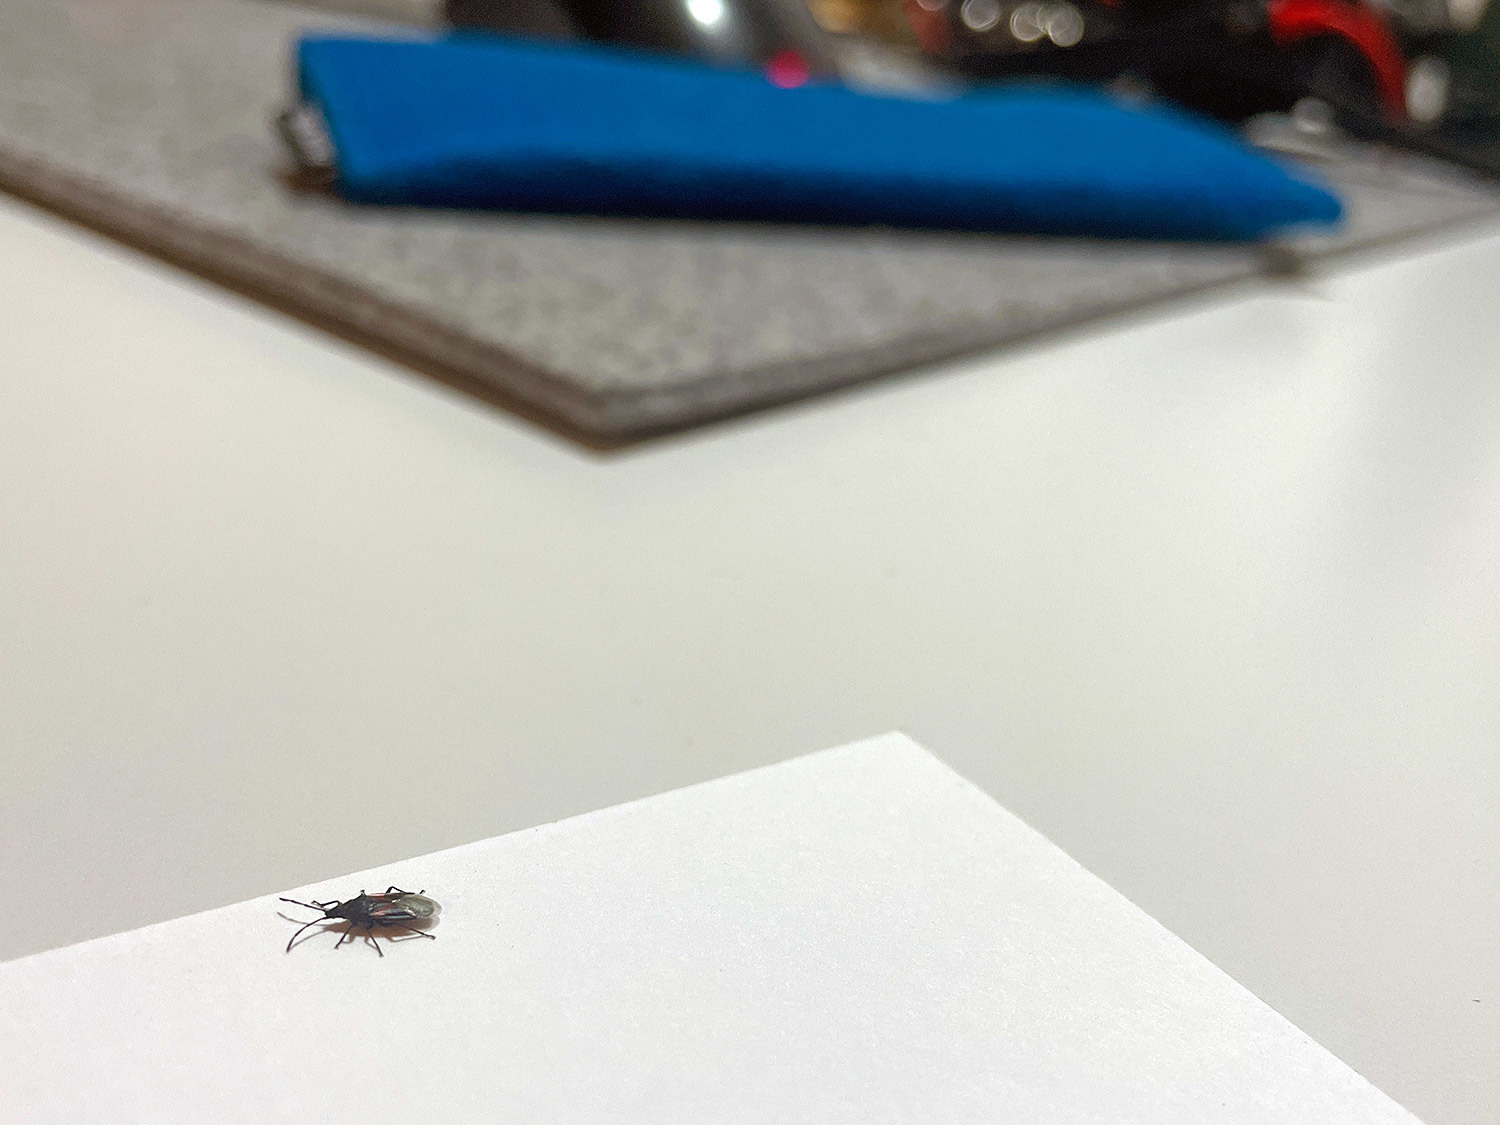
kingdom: Animalia
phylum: Arthropoda
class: Insecta
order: Hemiptera
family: Oxycarenidae
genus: Oxycarenus
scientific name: Oxycarenus lavaterae
